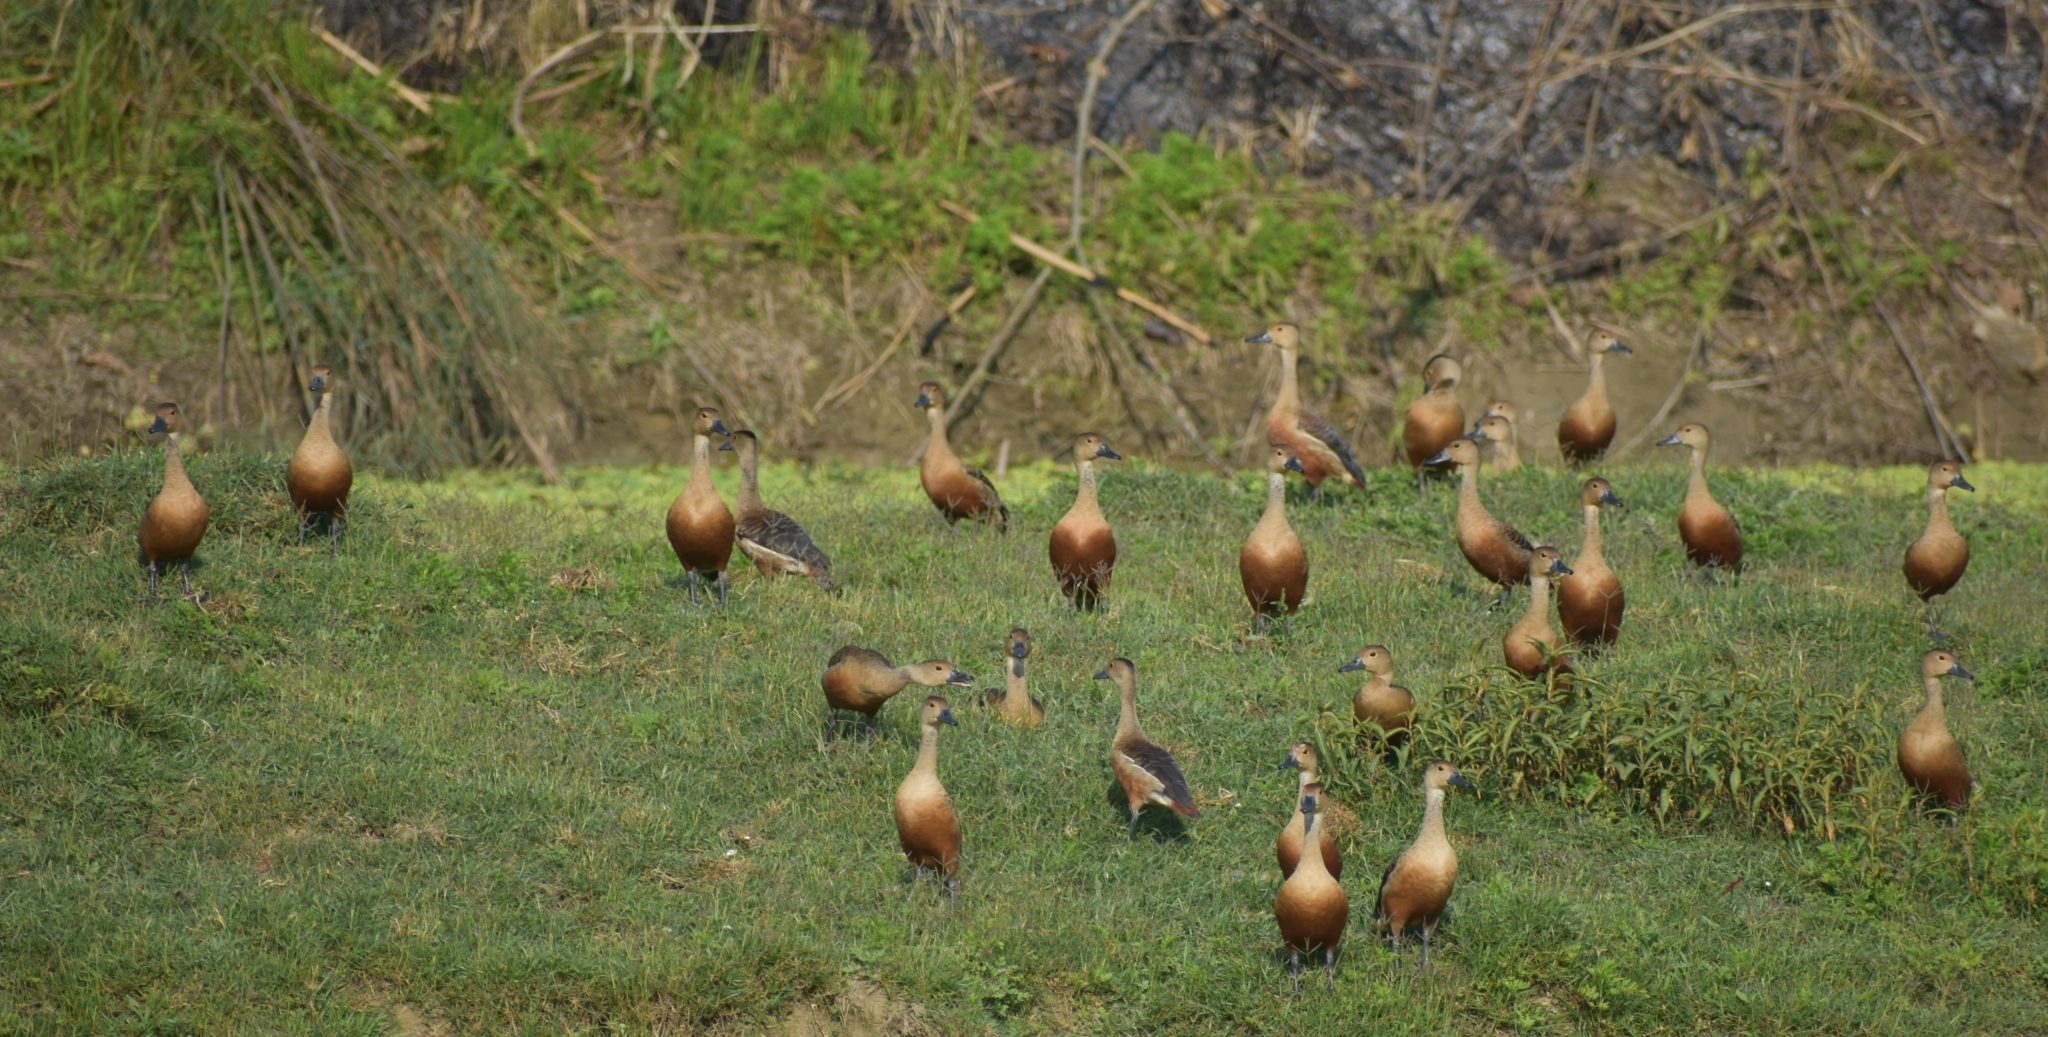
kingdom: Animalia
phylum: Chordata
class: Aves
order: Anseriformes
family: Anatidae
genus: Dendrocygna
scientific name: Dendrocygna javanica
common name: Lesser whistling-duck
